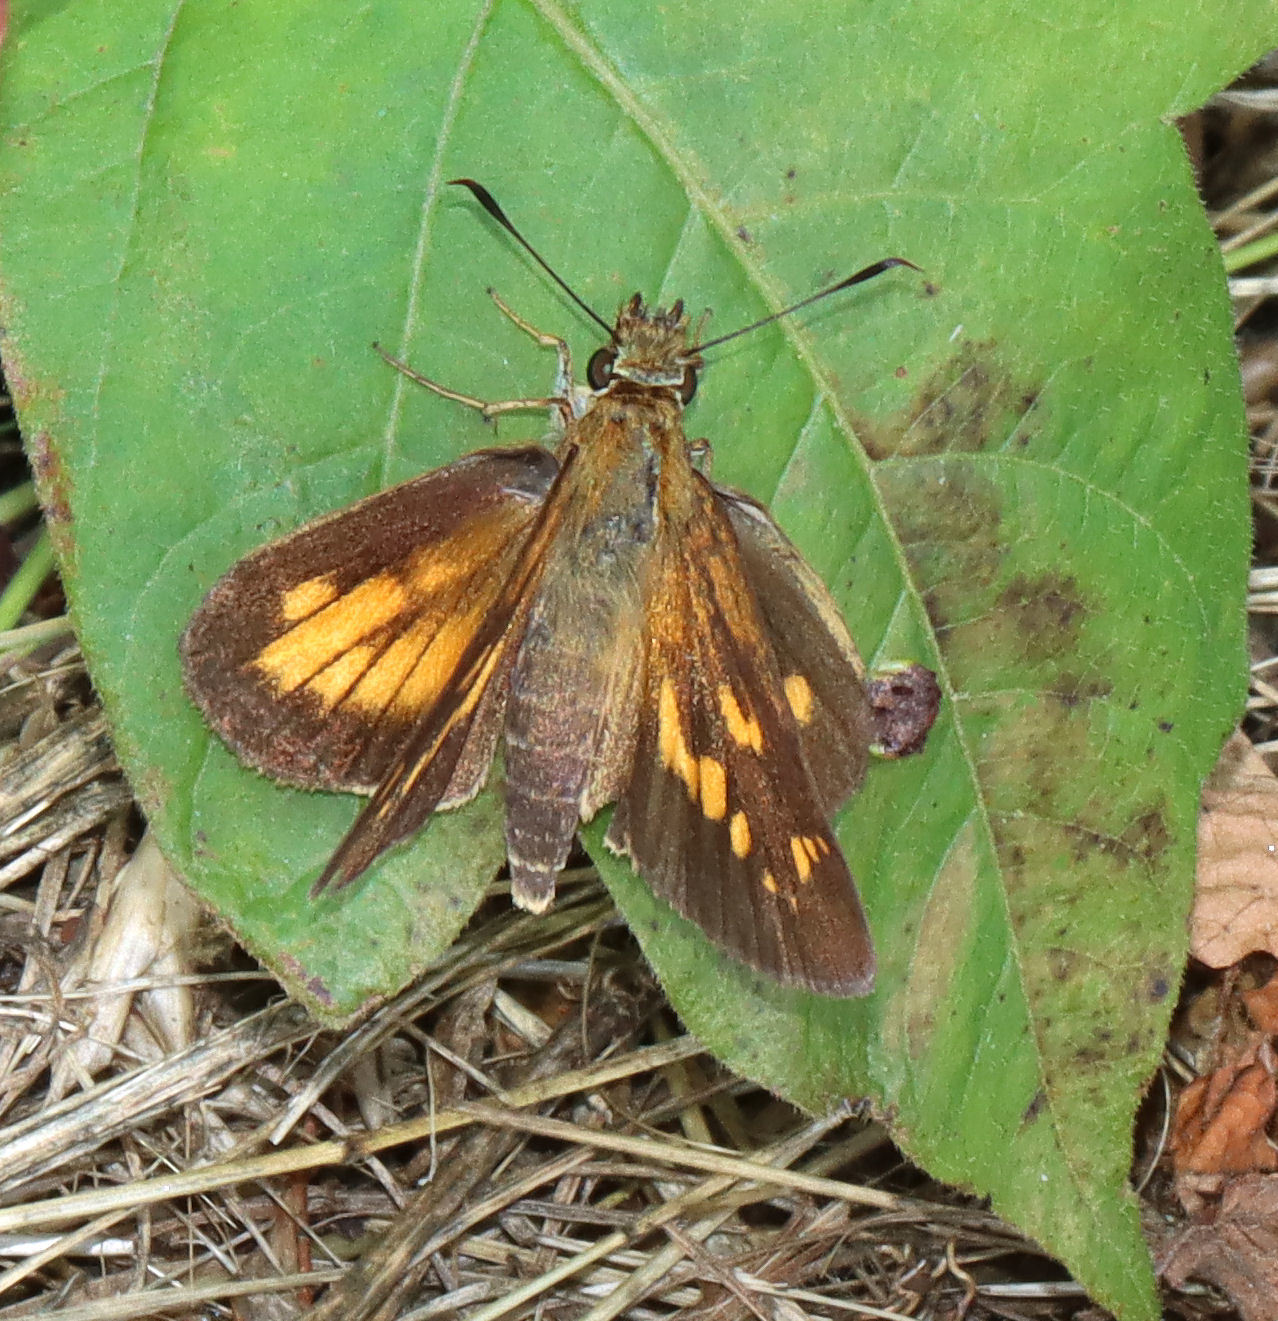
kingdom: Animalia
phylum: Arthropoda
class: Insecta
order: Lepidoptera
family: Hesperiidae
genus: Poanes
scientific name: Poanes viator
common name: Broad-winged skipper
